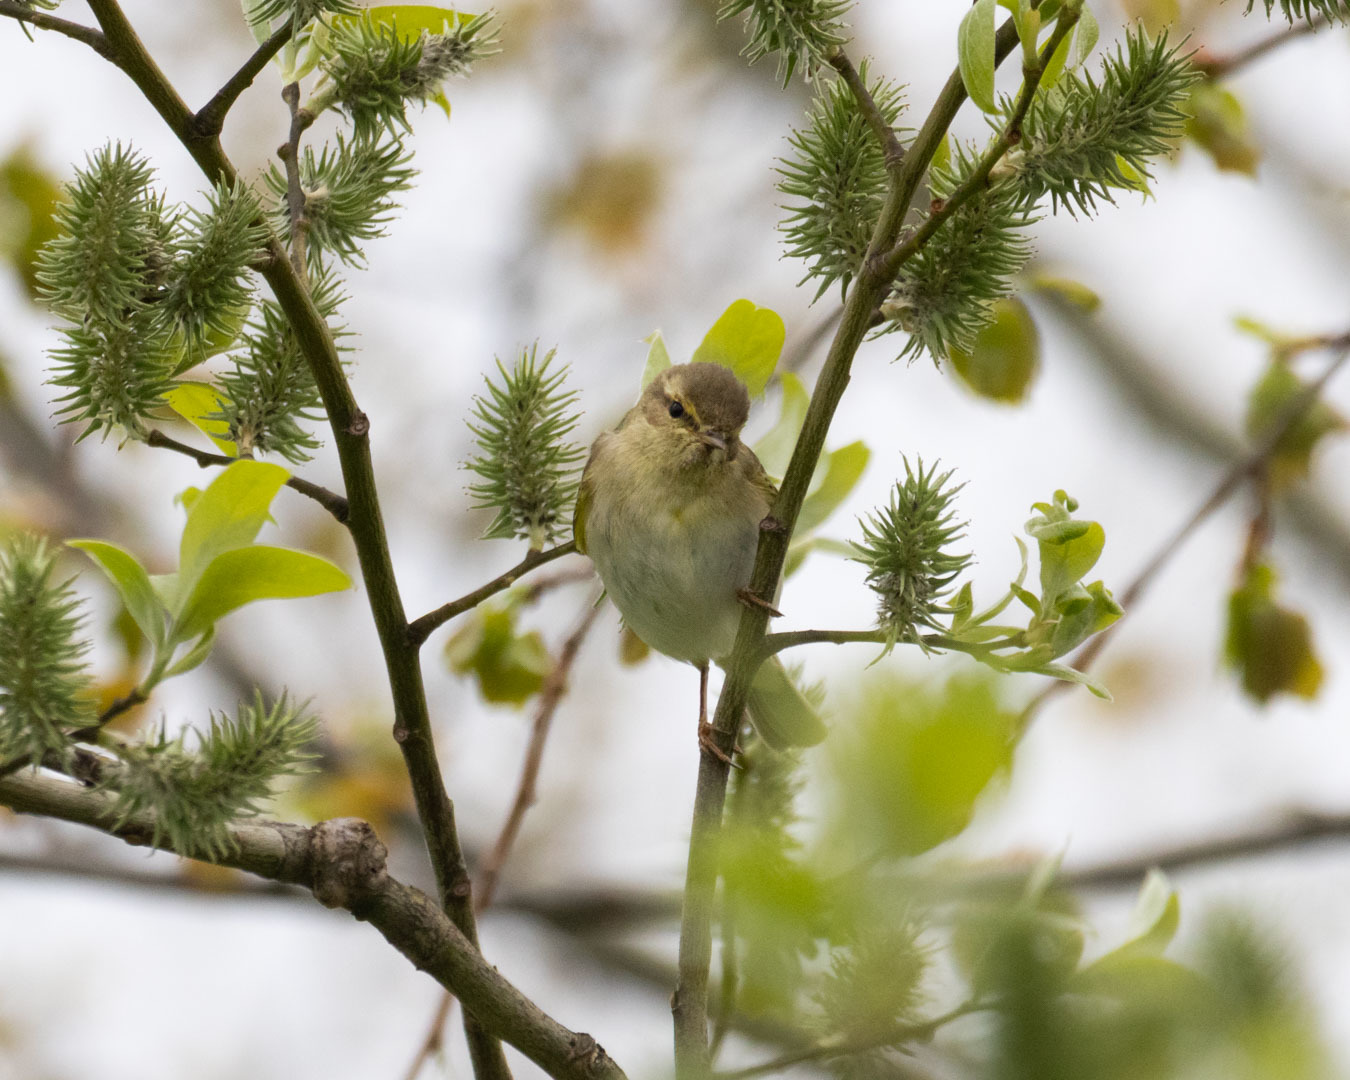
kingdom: Animalia
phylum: Chordata
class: Aves
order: Passeriformes
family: Phylloscopidae
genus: Phylloscopus
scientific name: Phylloscopus trochilus
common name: Willow warbler
